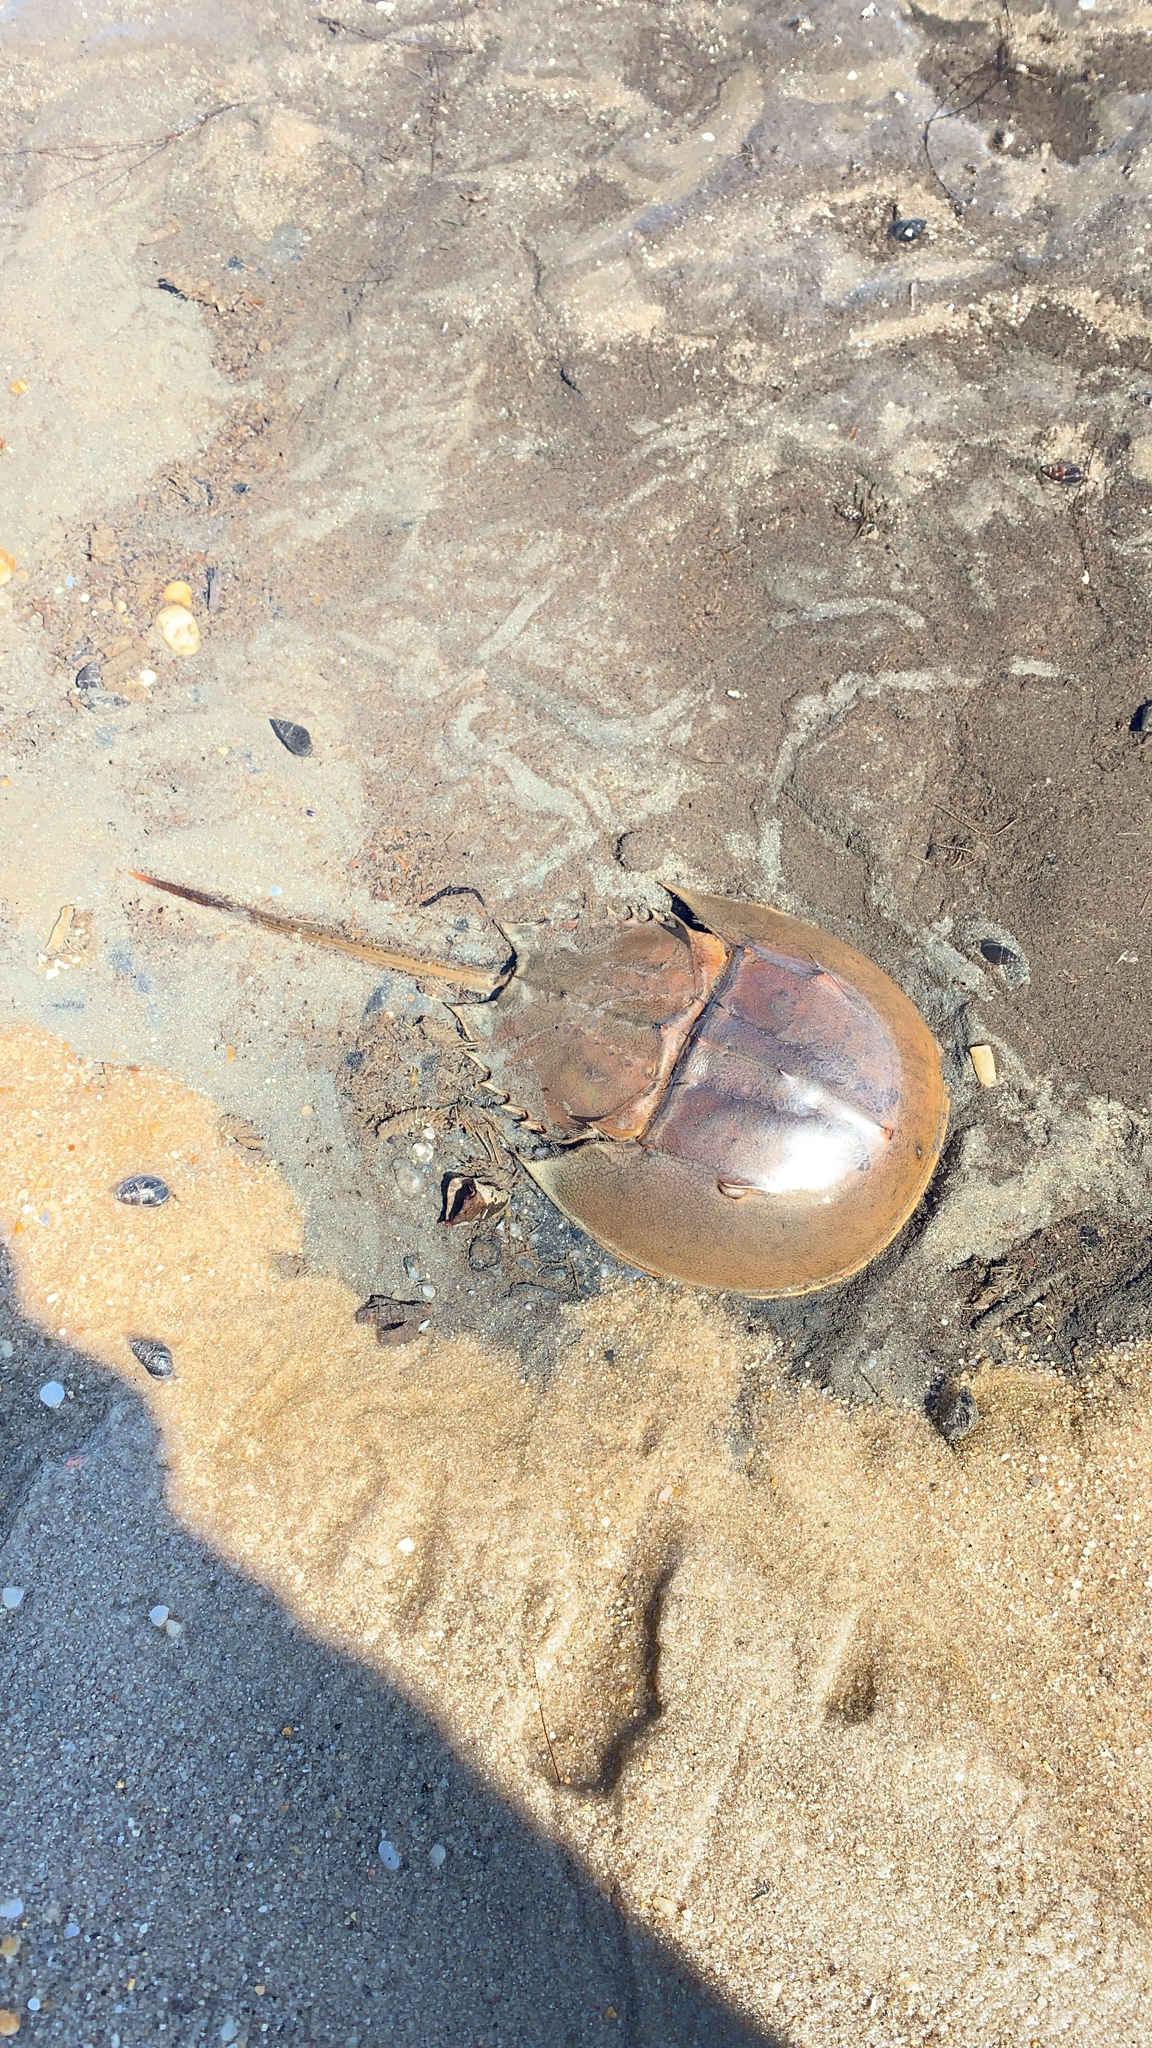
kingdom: Animalia
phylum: Arthropoda
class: Merostomata
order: Xiphosurida
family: Limulidae
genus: Limulus
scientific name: Limulus polyphemus
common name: Horseshoe crab
